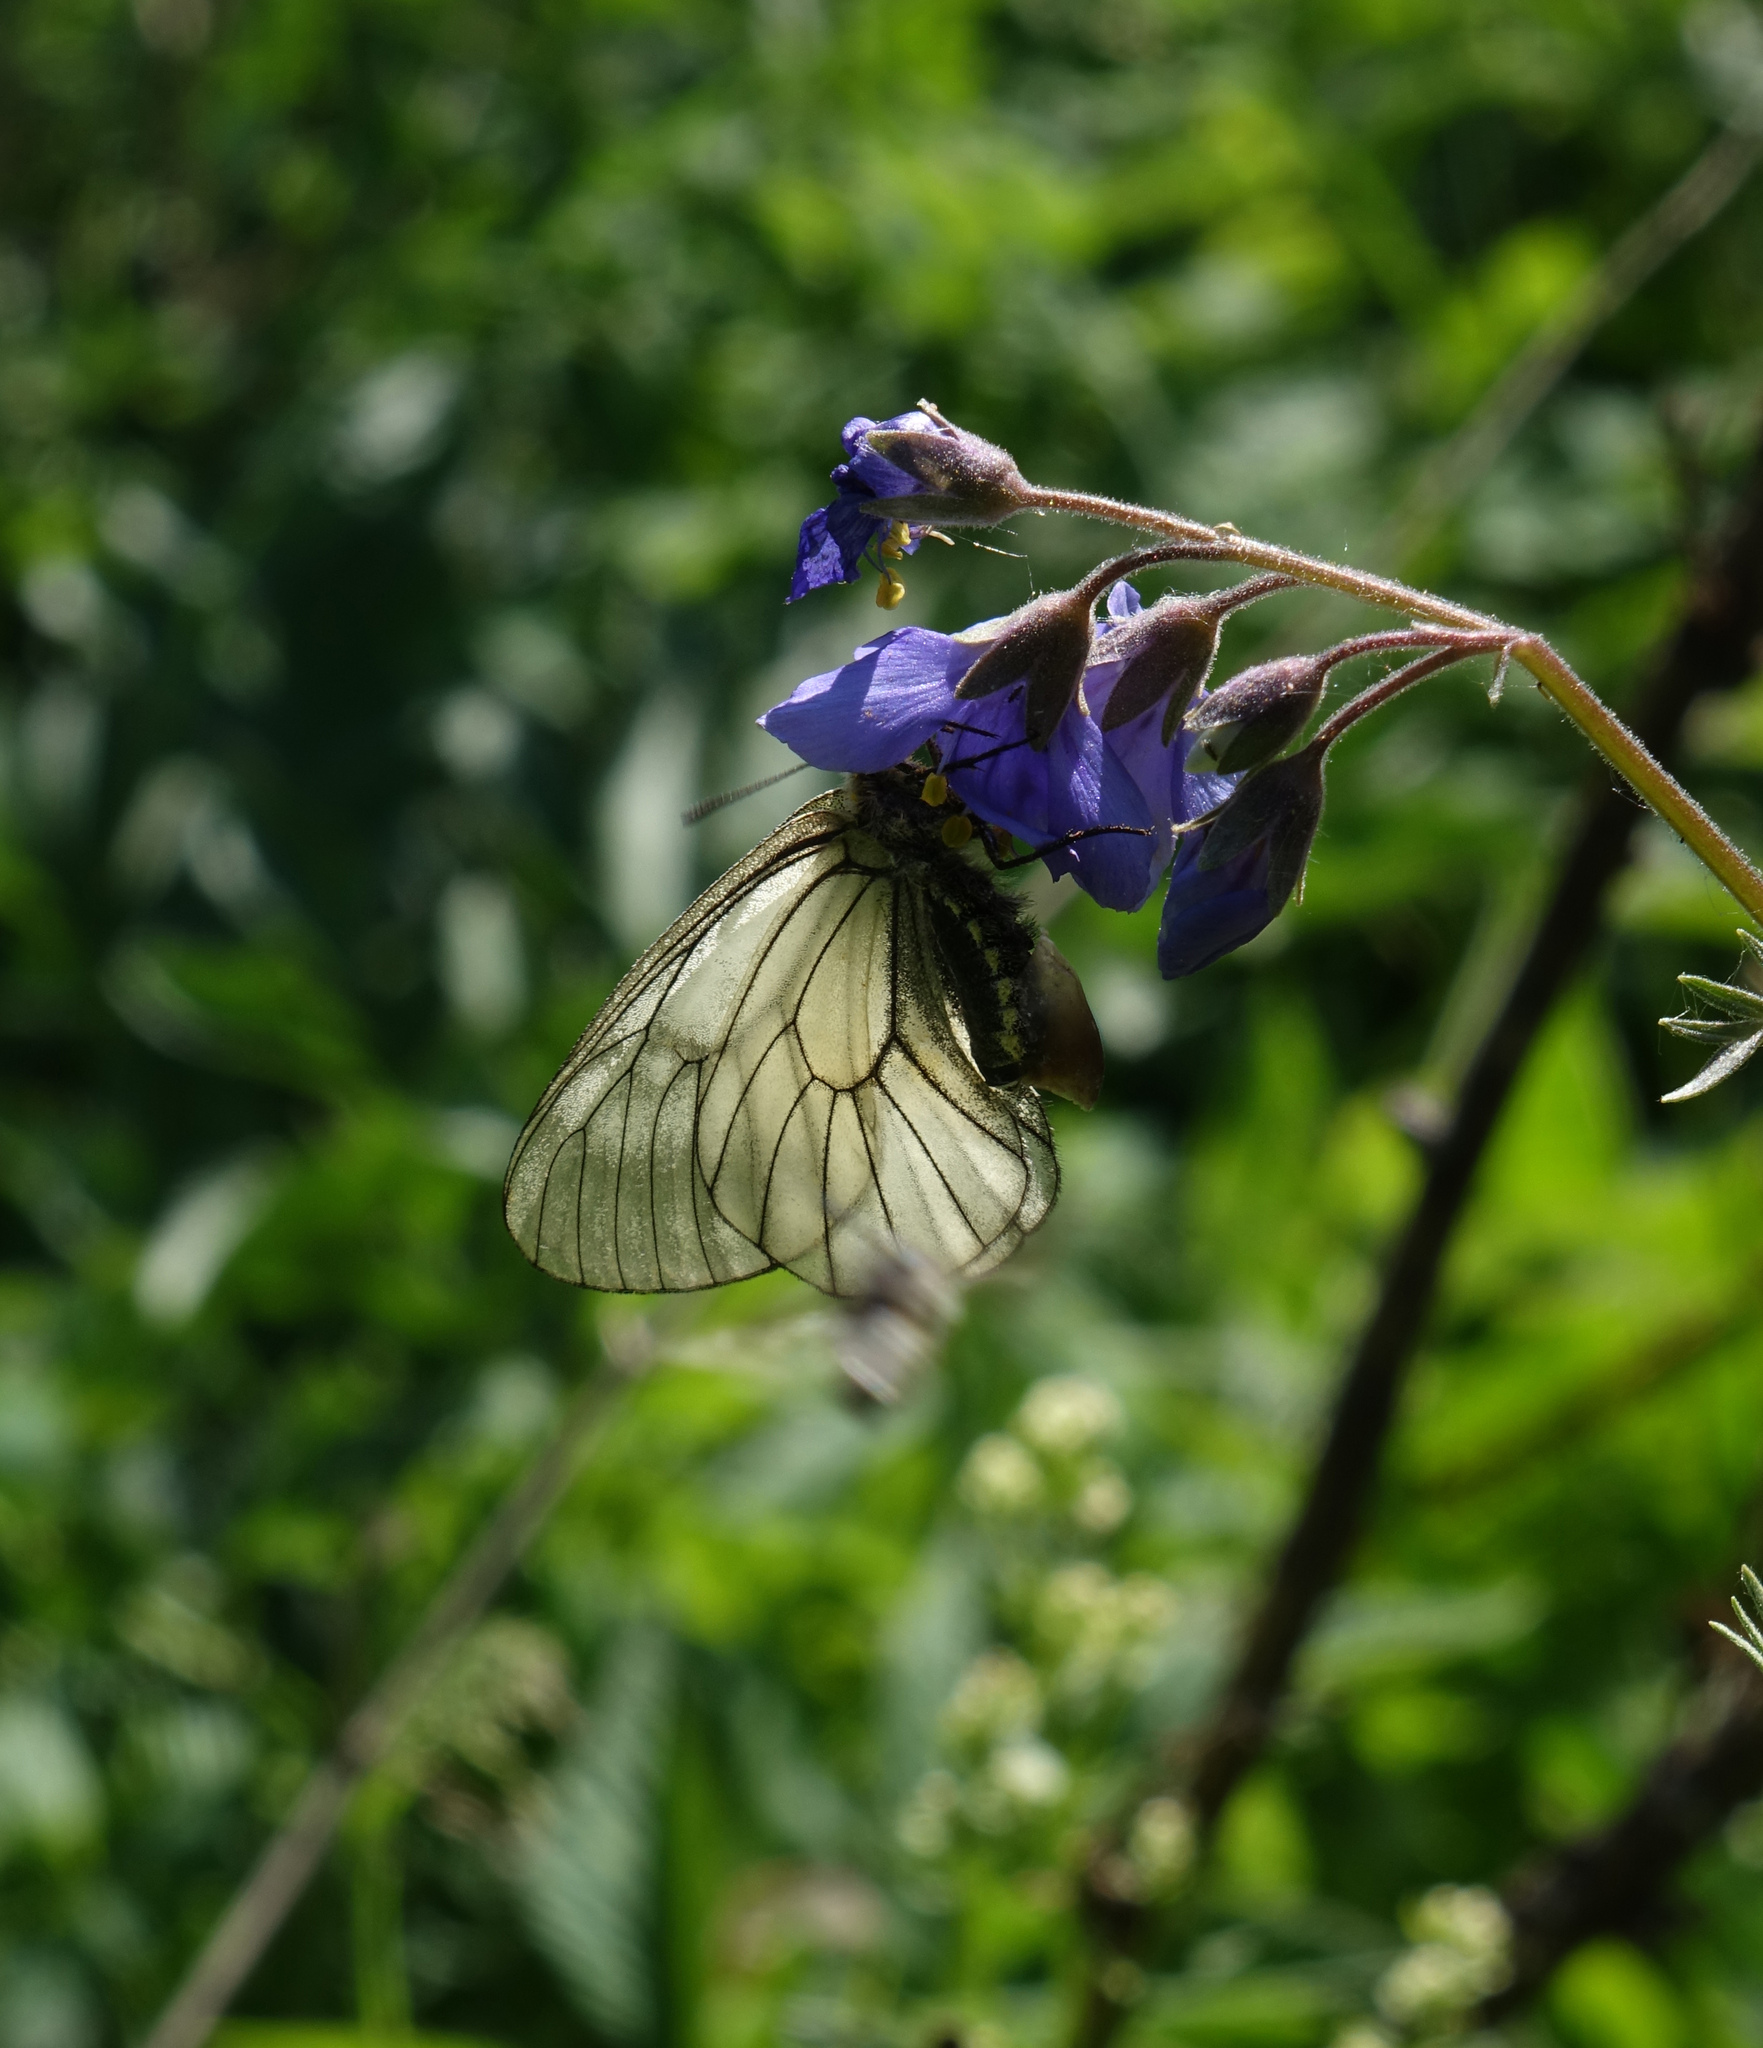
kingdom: Plantae
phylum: Tracheophyta
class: Magnoliopsida
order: Ericales
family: Polemoniaceae
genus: Polemonium
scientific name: Polemonium caeruleum
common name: Jacob's-ladder
